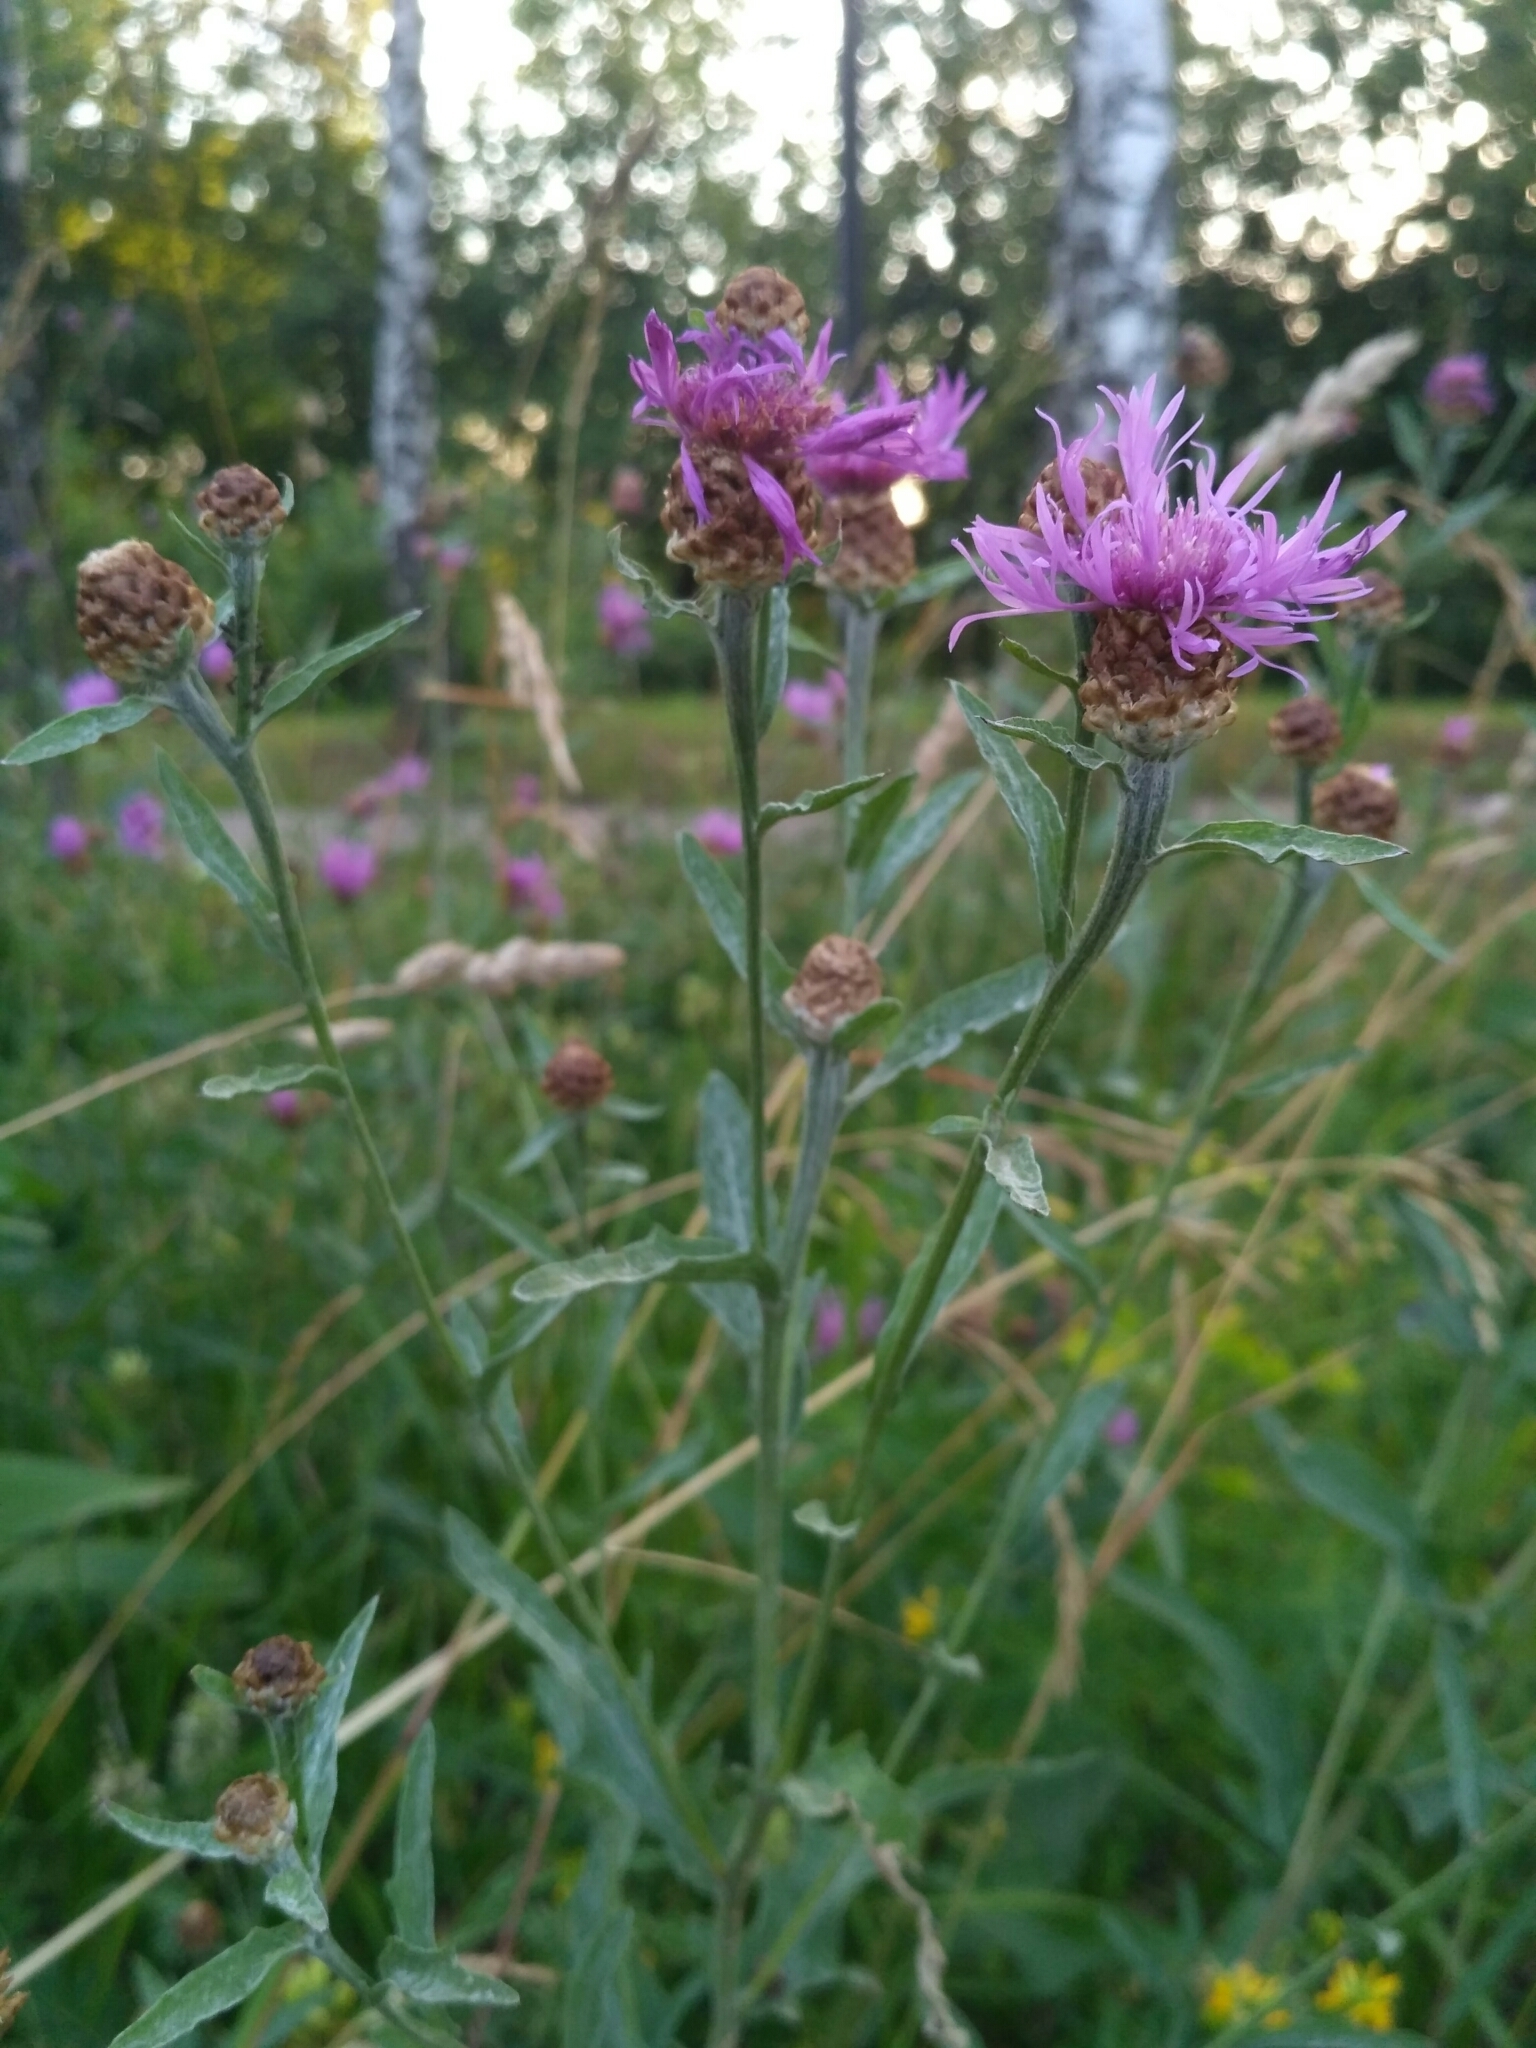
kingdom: Plantae
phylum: Tracheophyta
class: Magnoliopsida
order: Asterales
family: Asteraceae
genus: Centaurea
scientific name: Centaurea jacea
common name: Brown knapweed
